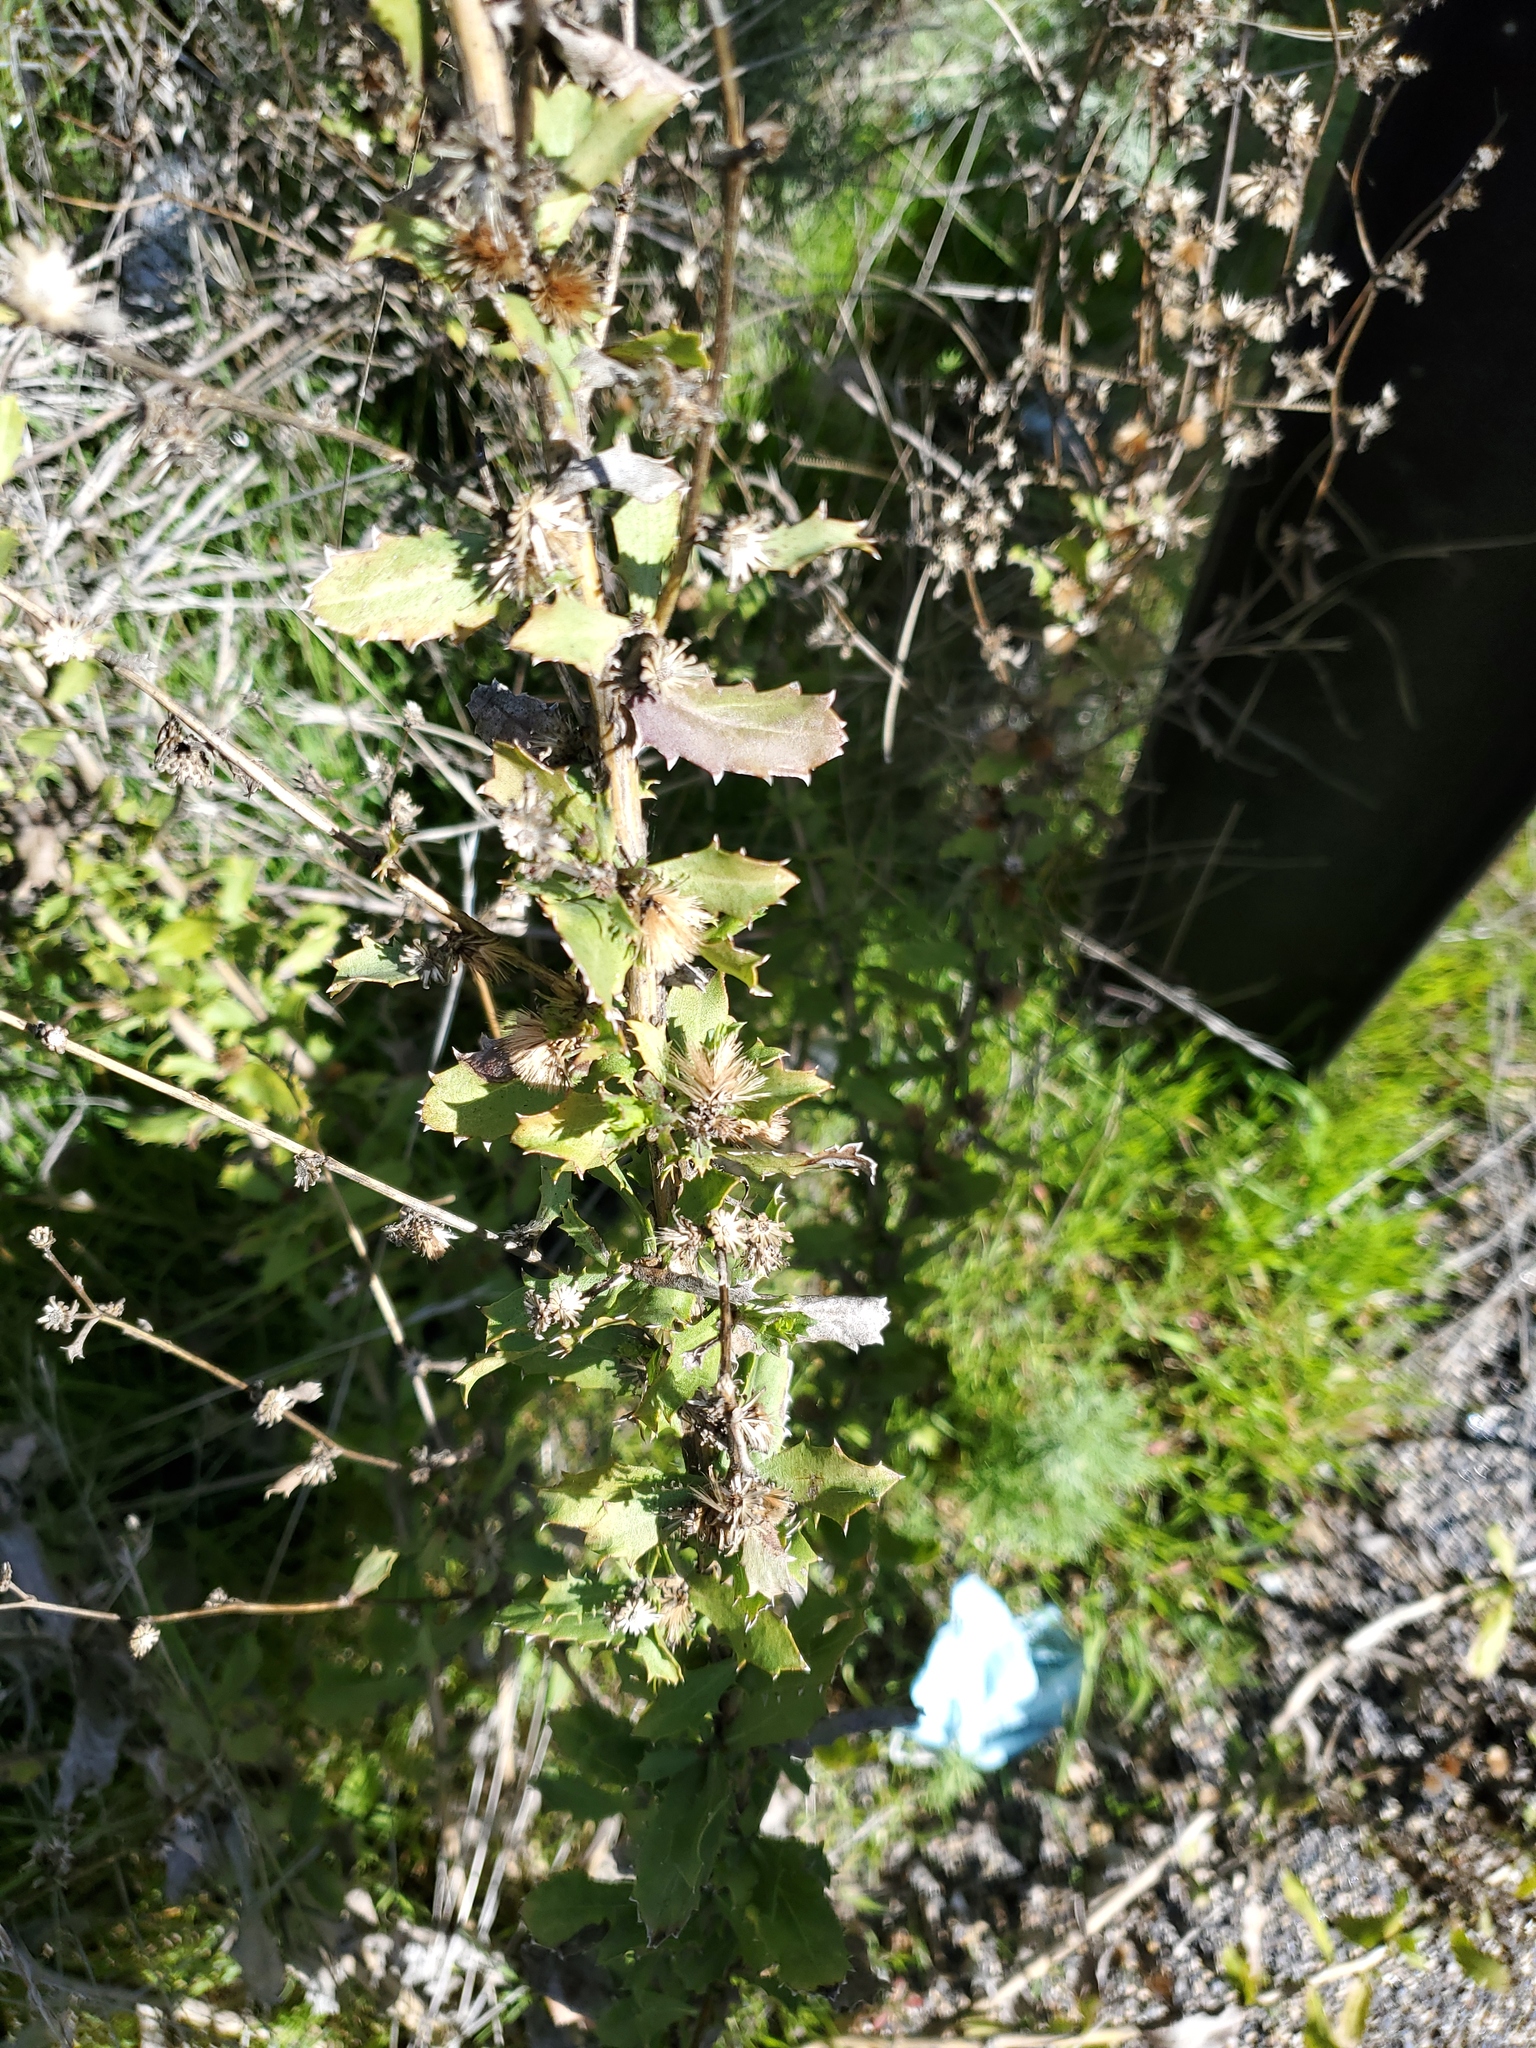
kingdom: Plantae
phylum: Tracheophyta
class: Magnoliopsida
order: Asterales
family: Asteraceae
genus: Hazardia
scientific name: Hazardia squarrosa
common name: Saw-tooth goldenbush
